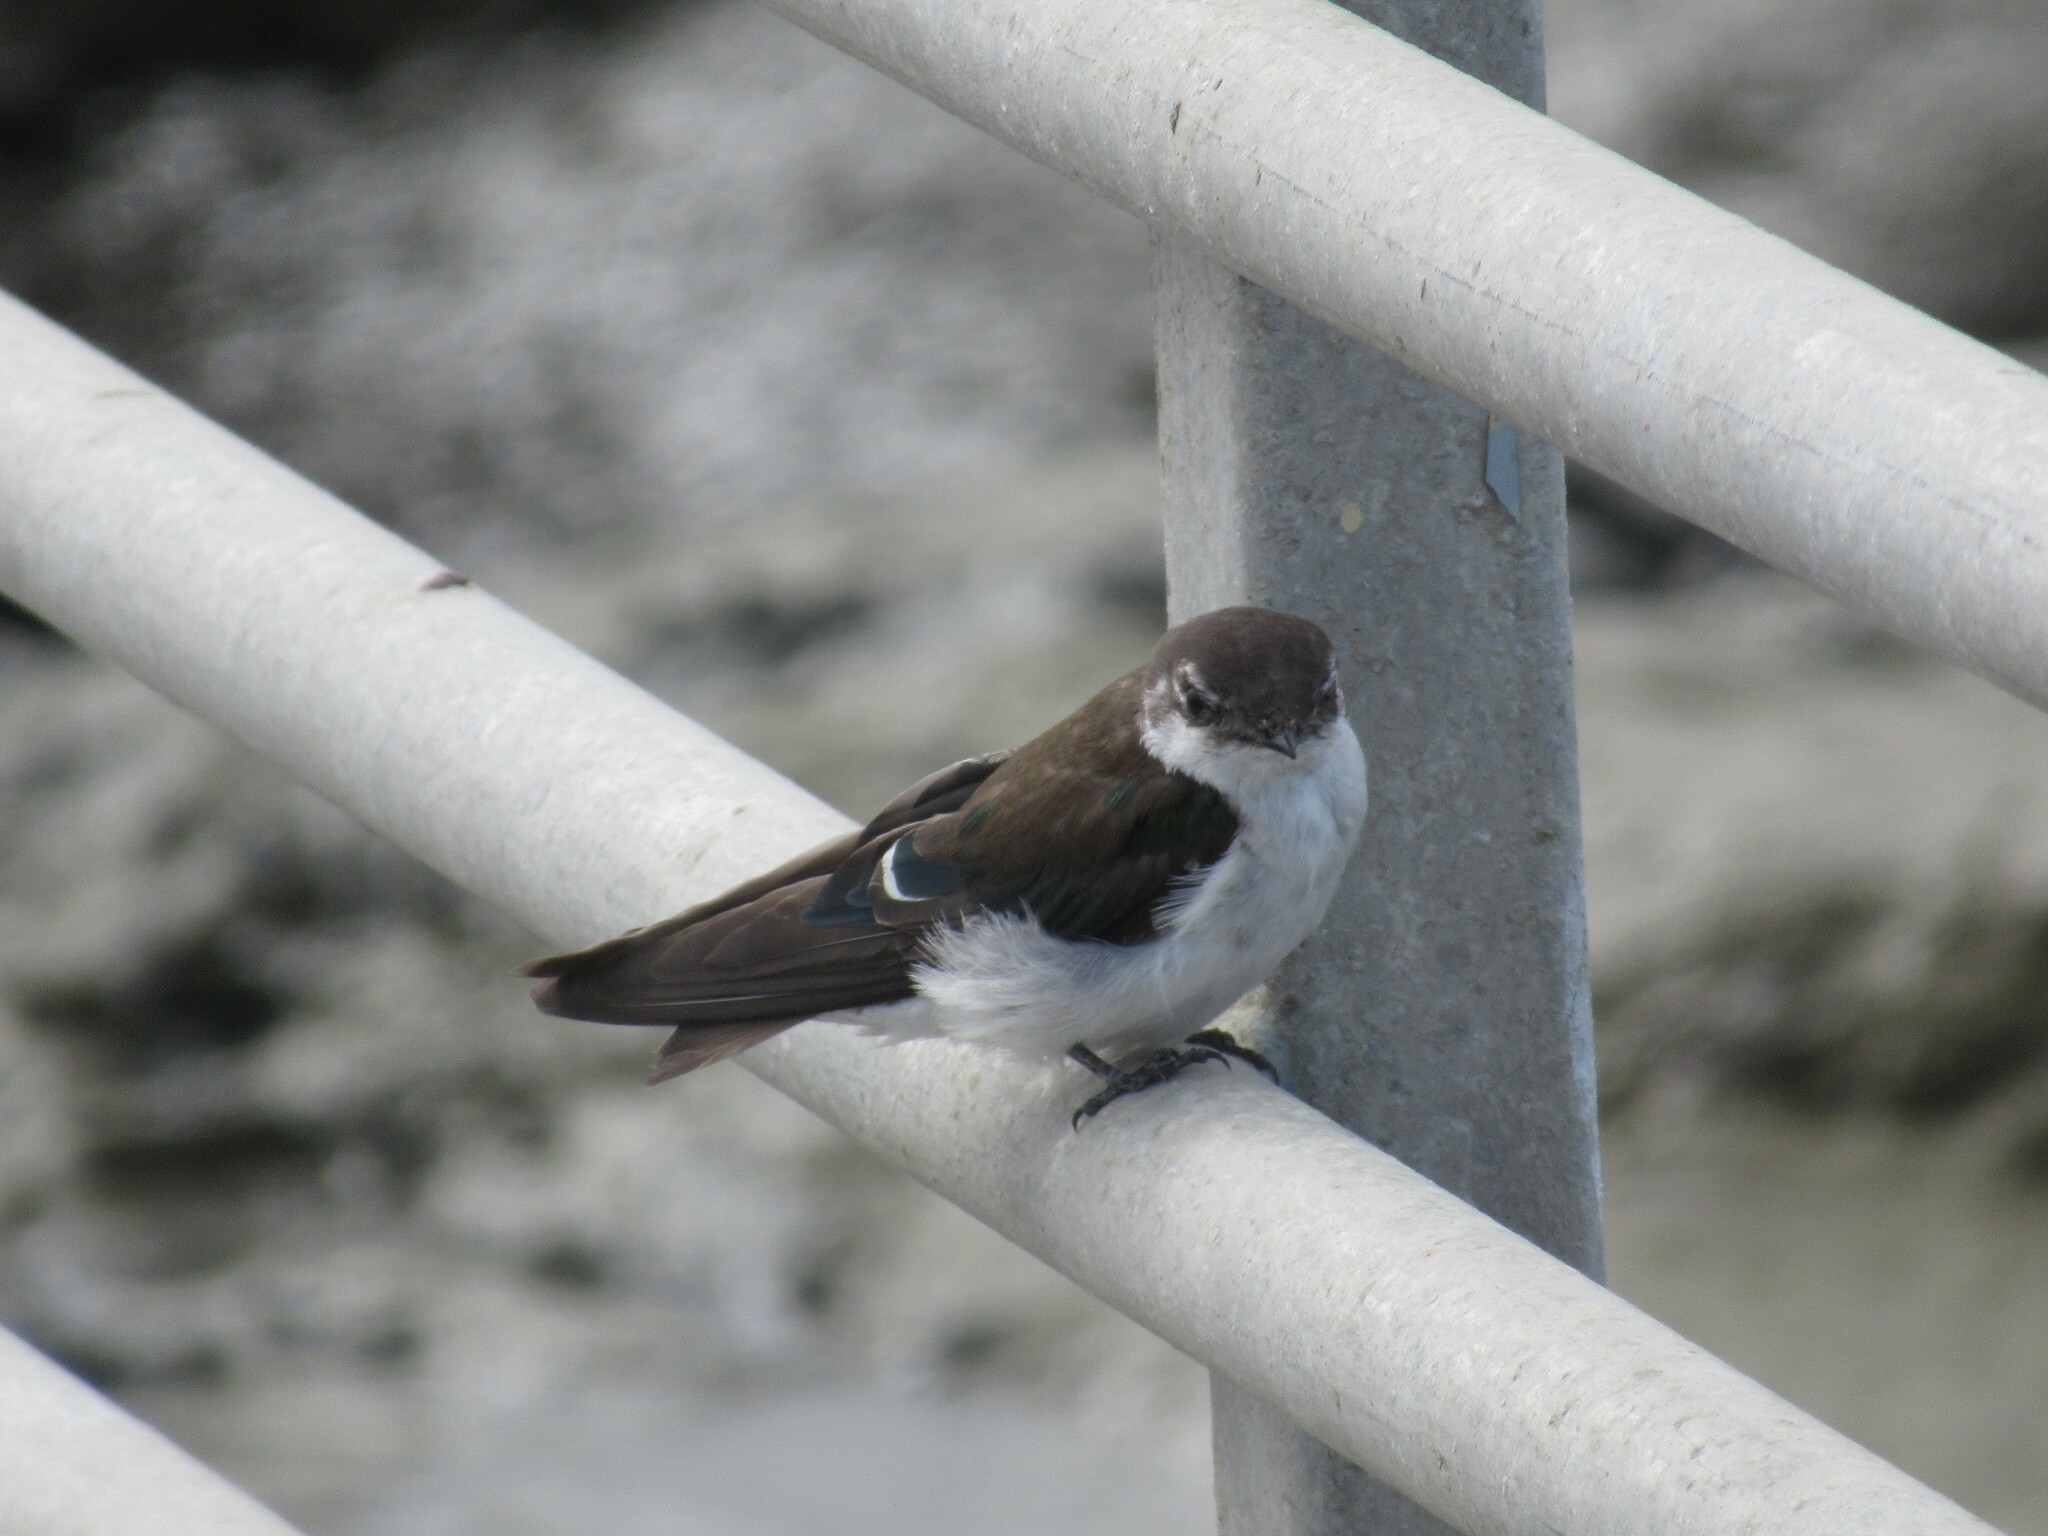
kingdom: Animalia
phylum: Chordata
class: Aves
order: Passeriformes
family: Hirundinidae
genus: Tachycineta
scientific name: Tachycineta thalassina
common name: Violet-green swallow
